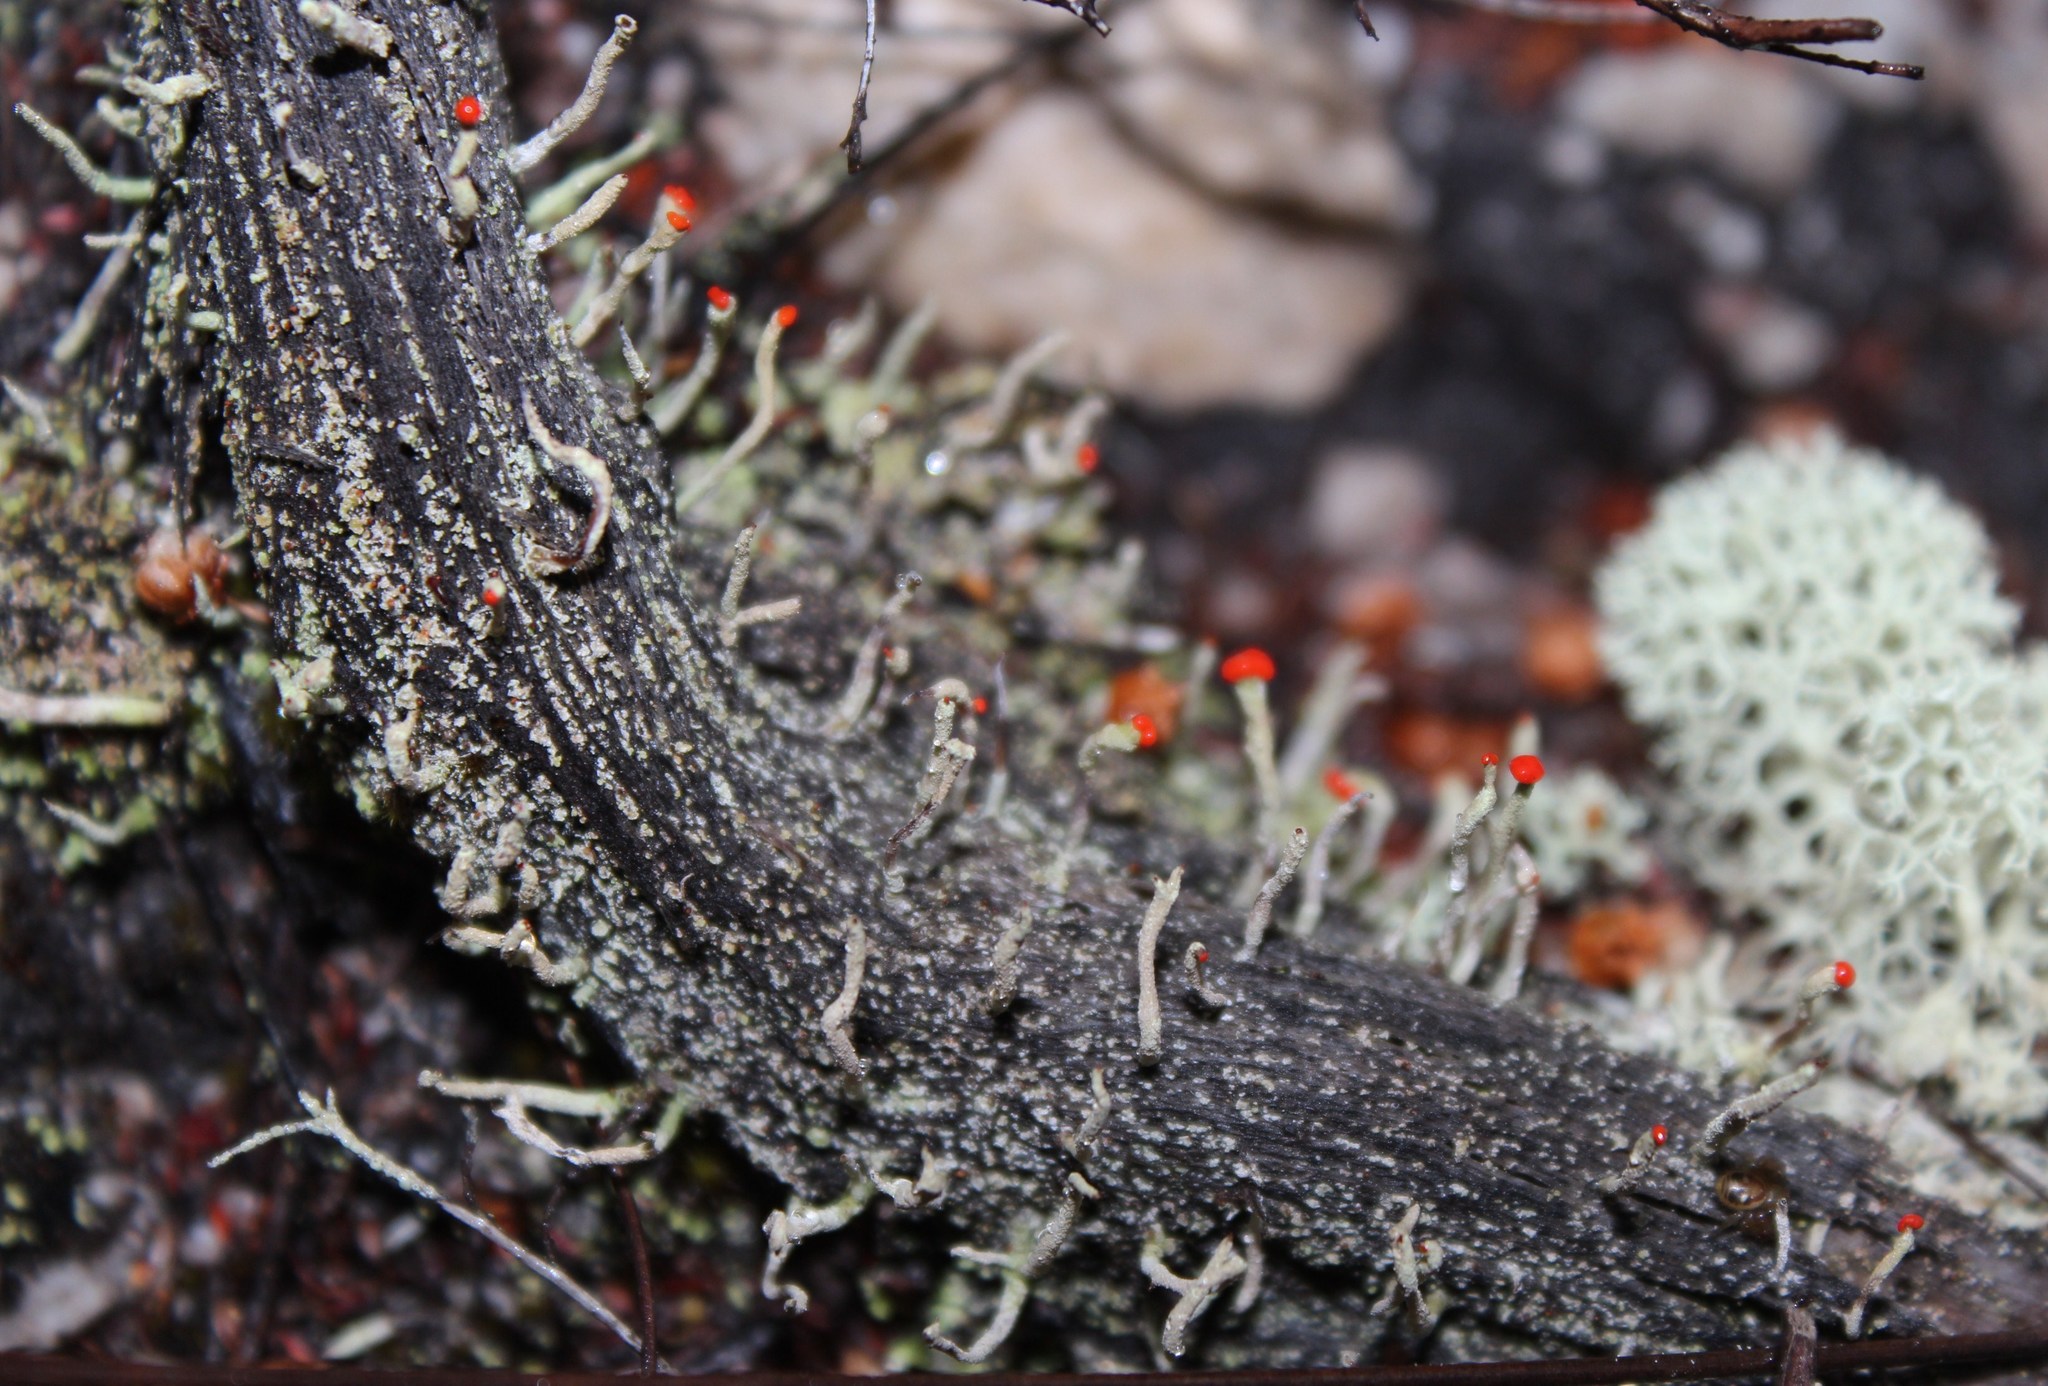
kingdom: Fungi
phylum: Ascomycota
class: Lecanoromycetes
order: Lecanorales
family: Cladoniaceae
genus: Cladonia
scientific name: Cladonia macilenta
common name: Lipstick powderhorn
